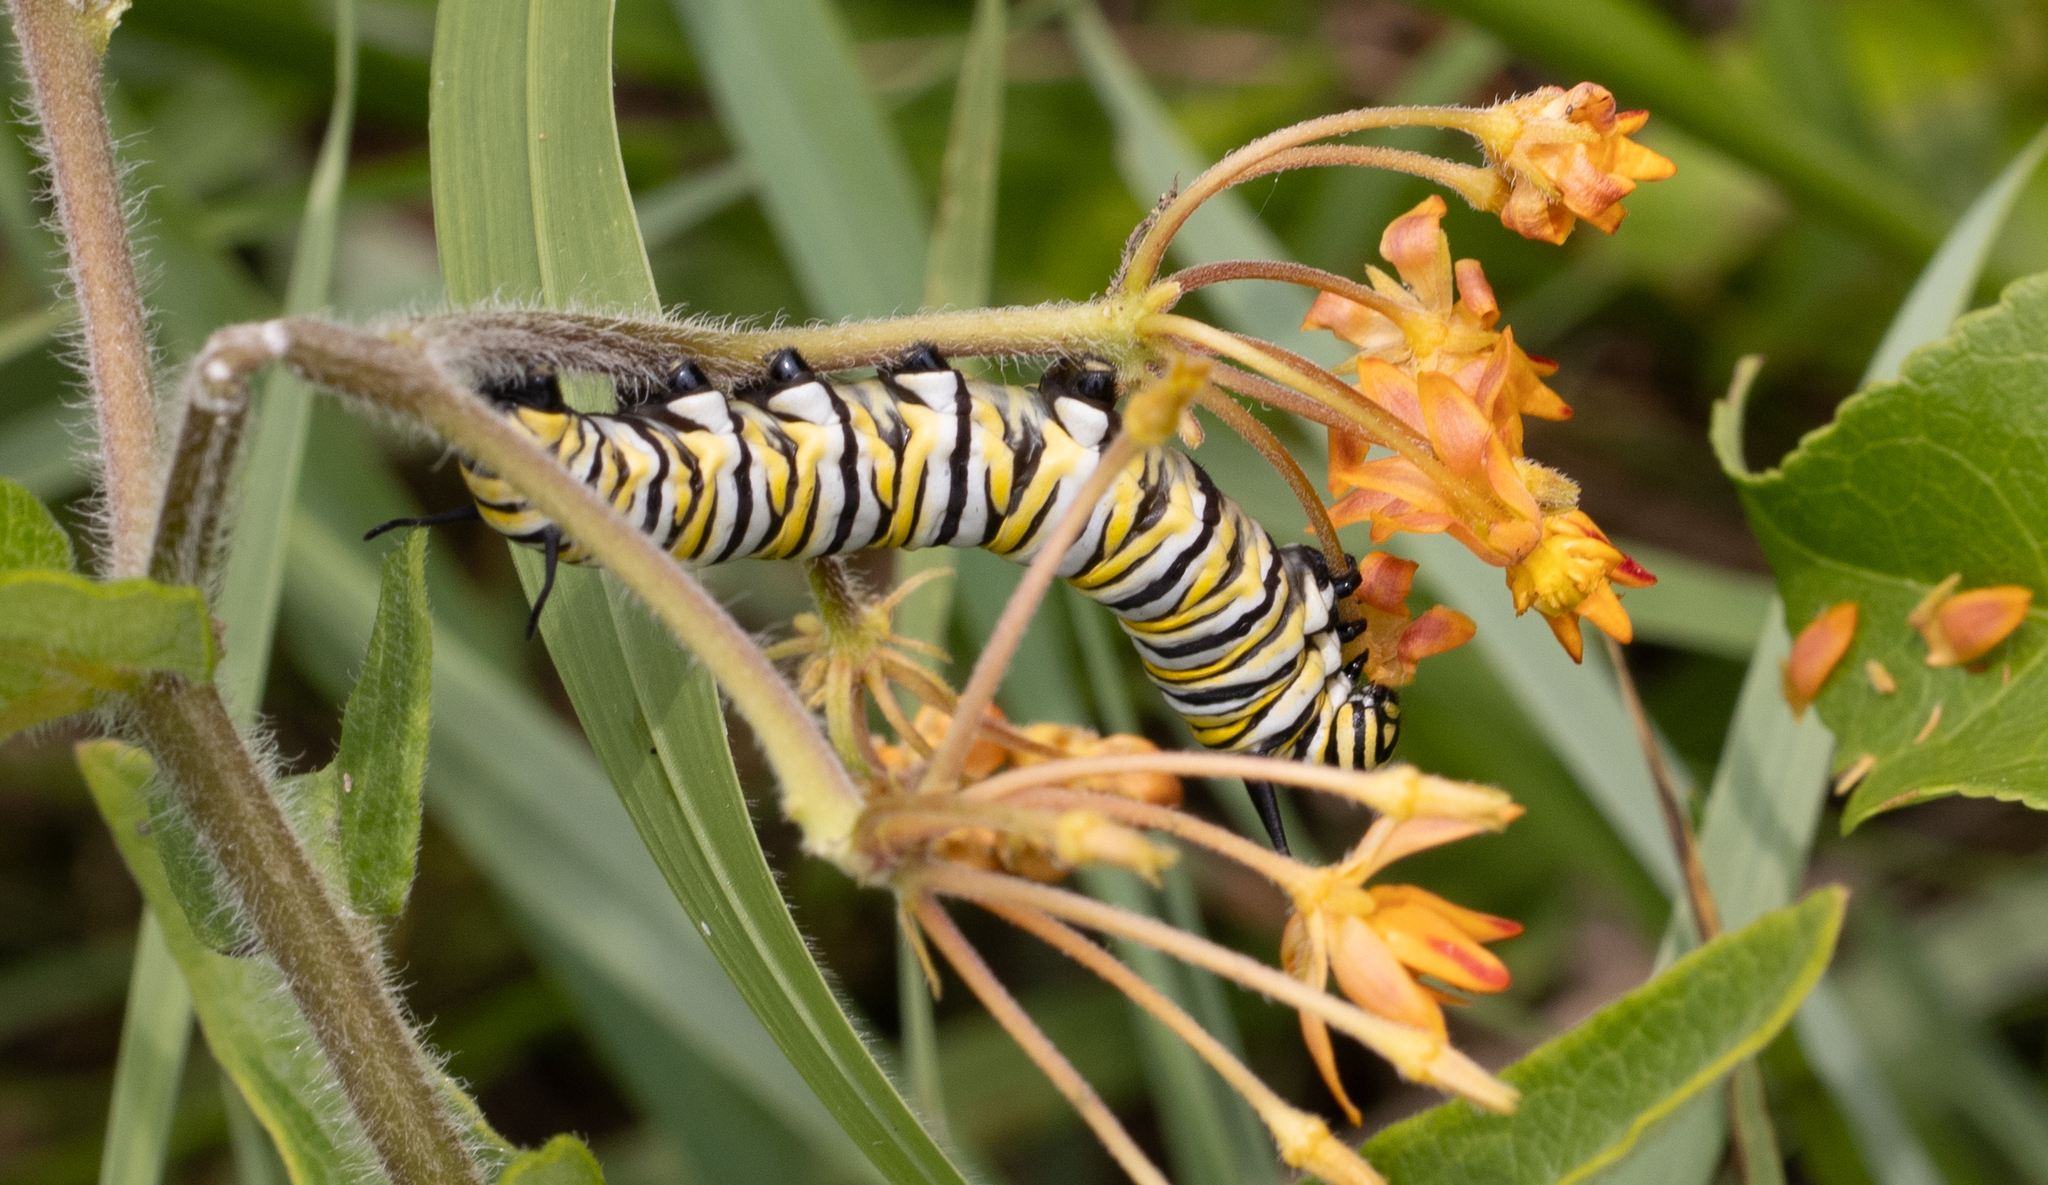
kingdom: Animalia
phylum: Arthropoda
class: Insecta
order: Lepidoptera
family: Nymphalidae
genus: Danaus
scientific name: Danaus plexippus
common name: Monarch
